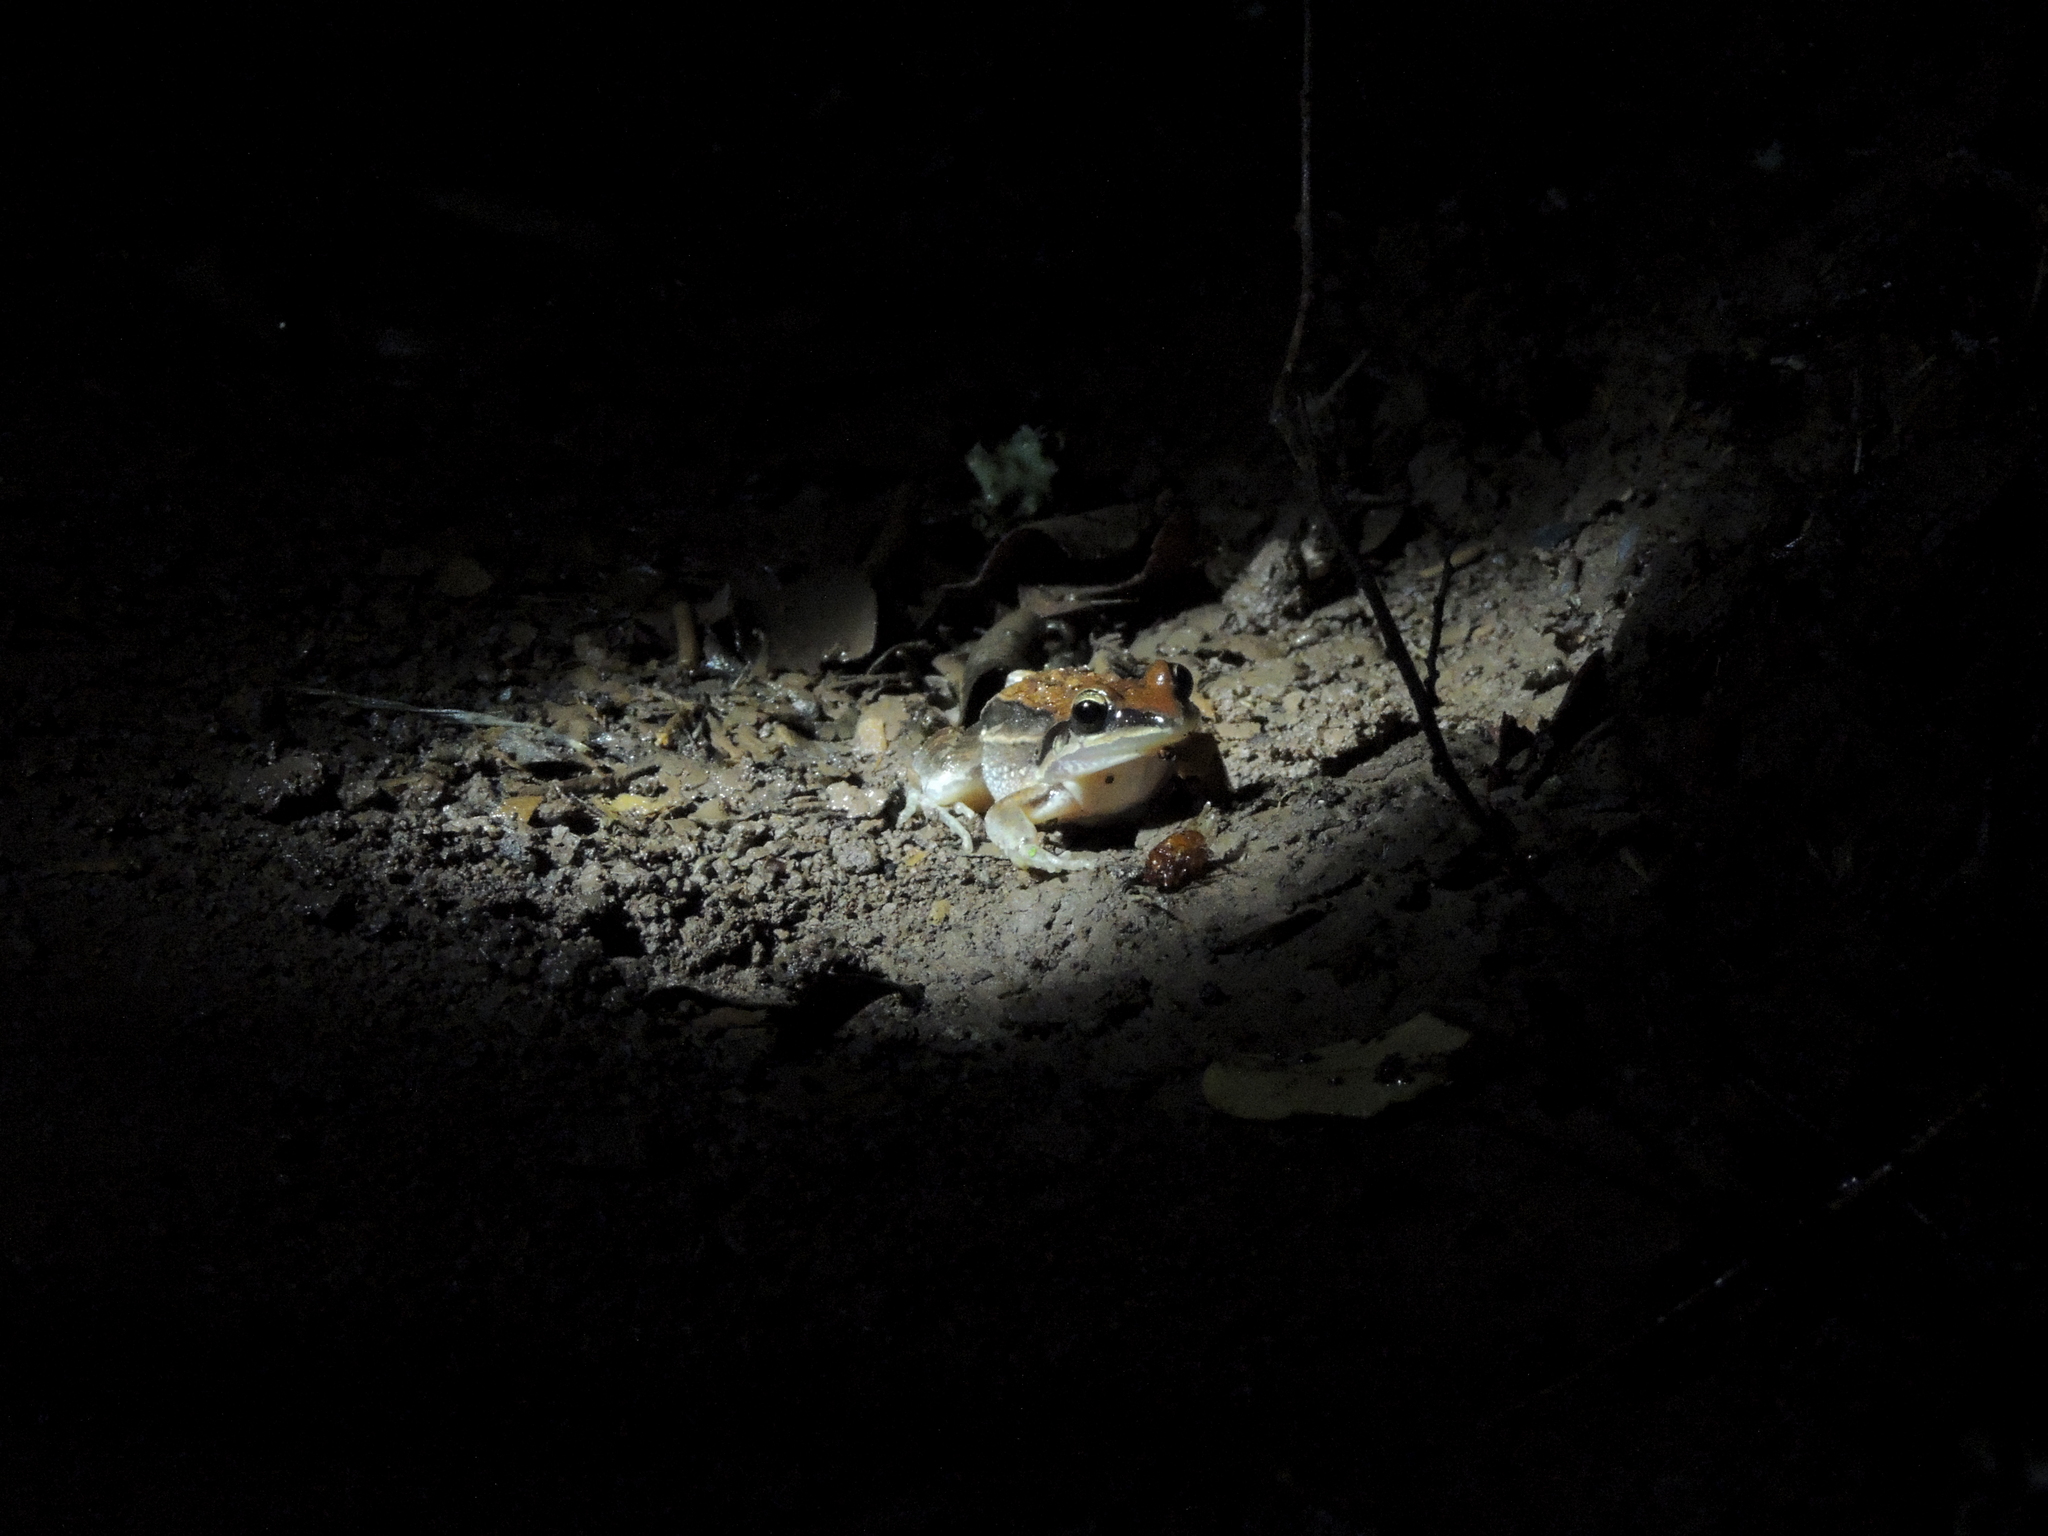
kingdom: Animalia
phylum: Chordata
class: Amphibia
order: Anura
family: Leptodactylidae
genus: Leptodactylus
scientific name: Leptodactylus elenae
